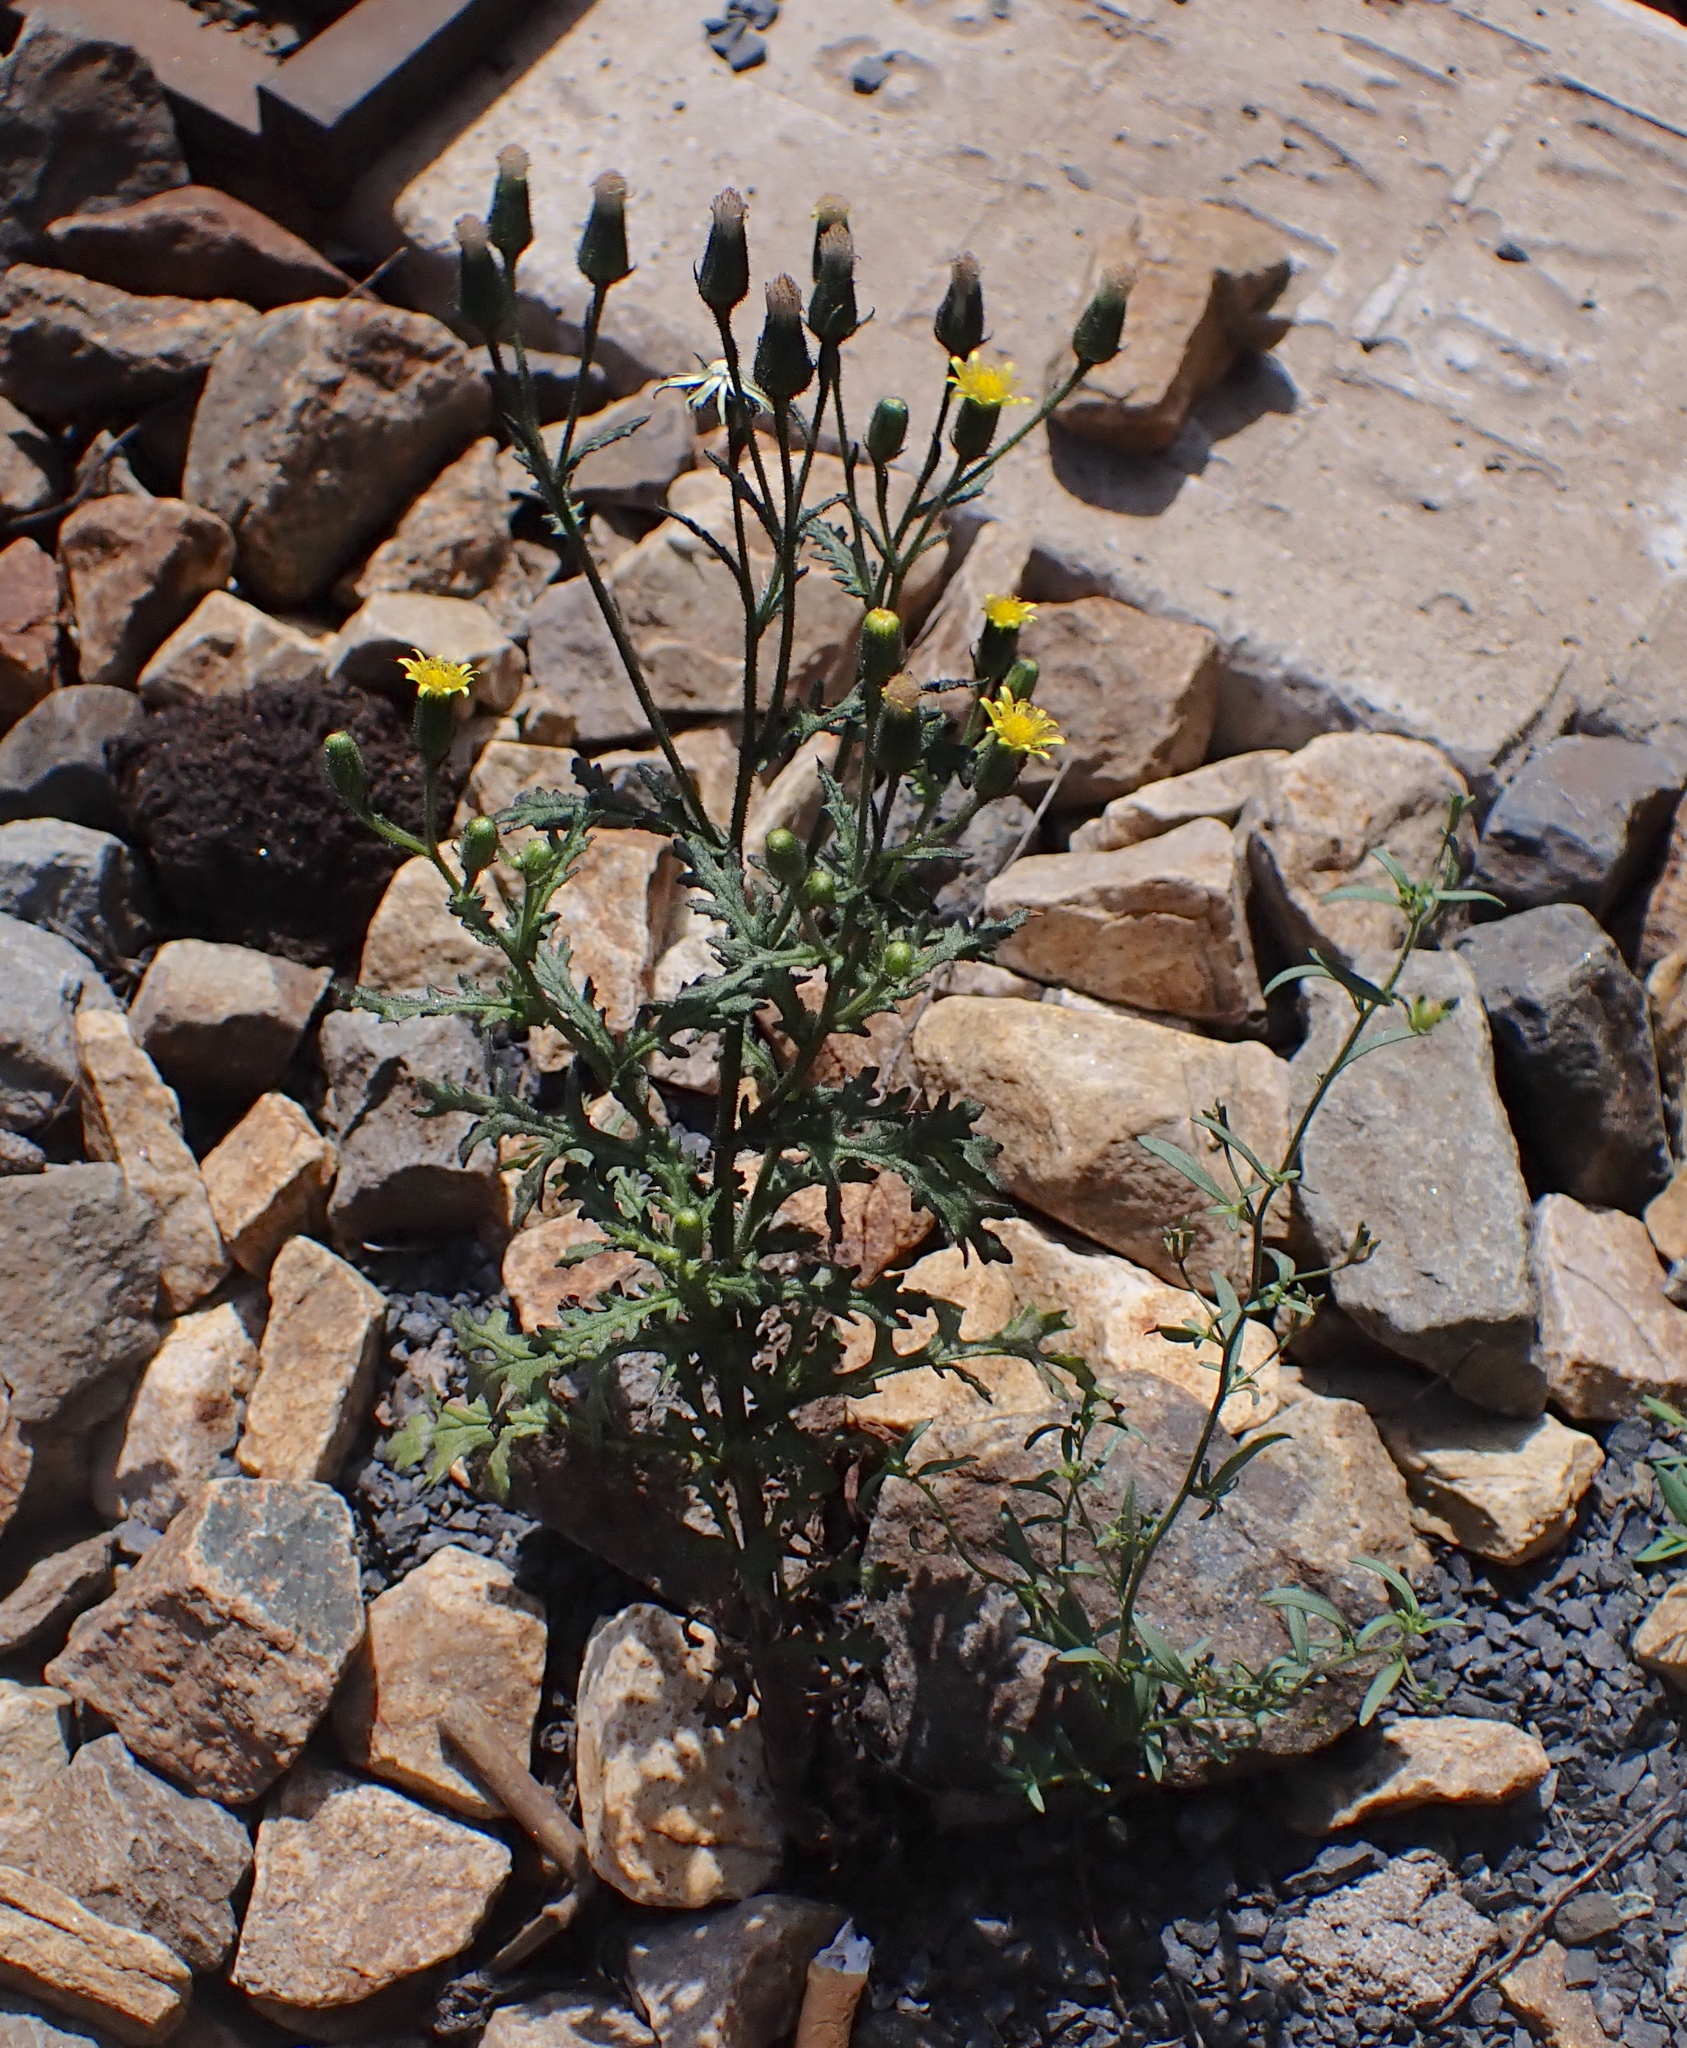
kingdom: Plantae
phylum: Tracheophyta
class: Magnoliopsida
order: Asterales
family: Asteraceae
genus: Senecio
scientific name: Senecio viscosus
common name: Sticky groundsel
